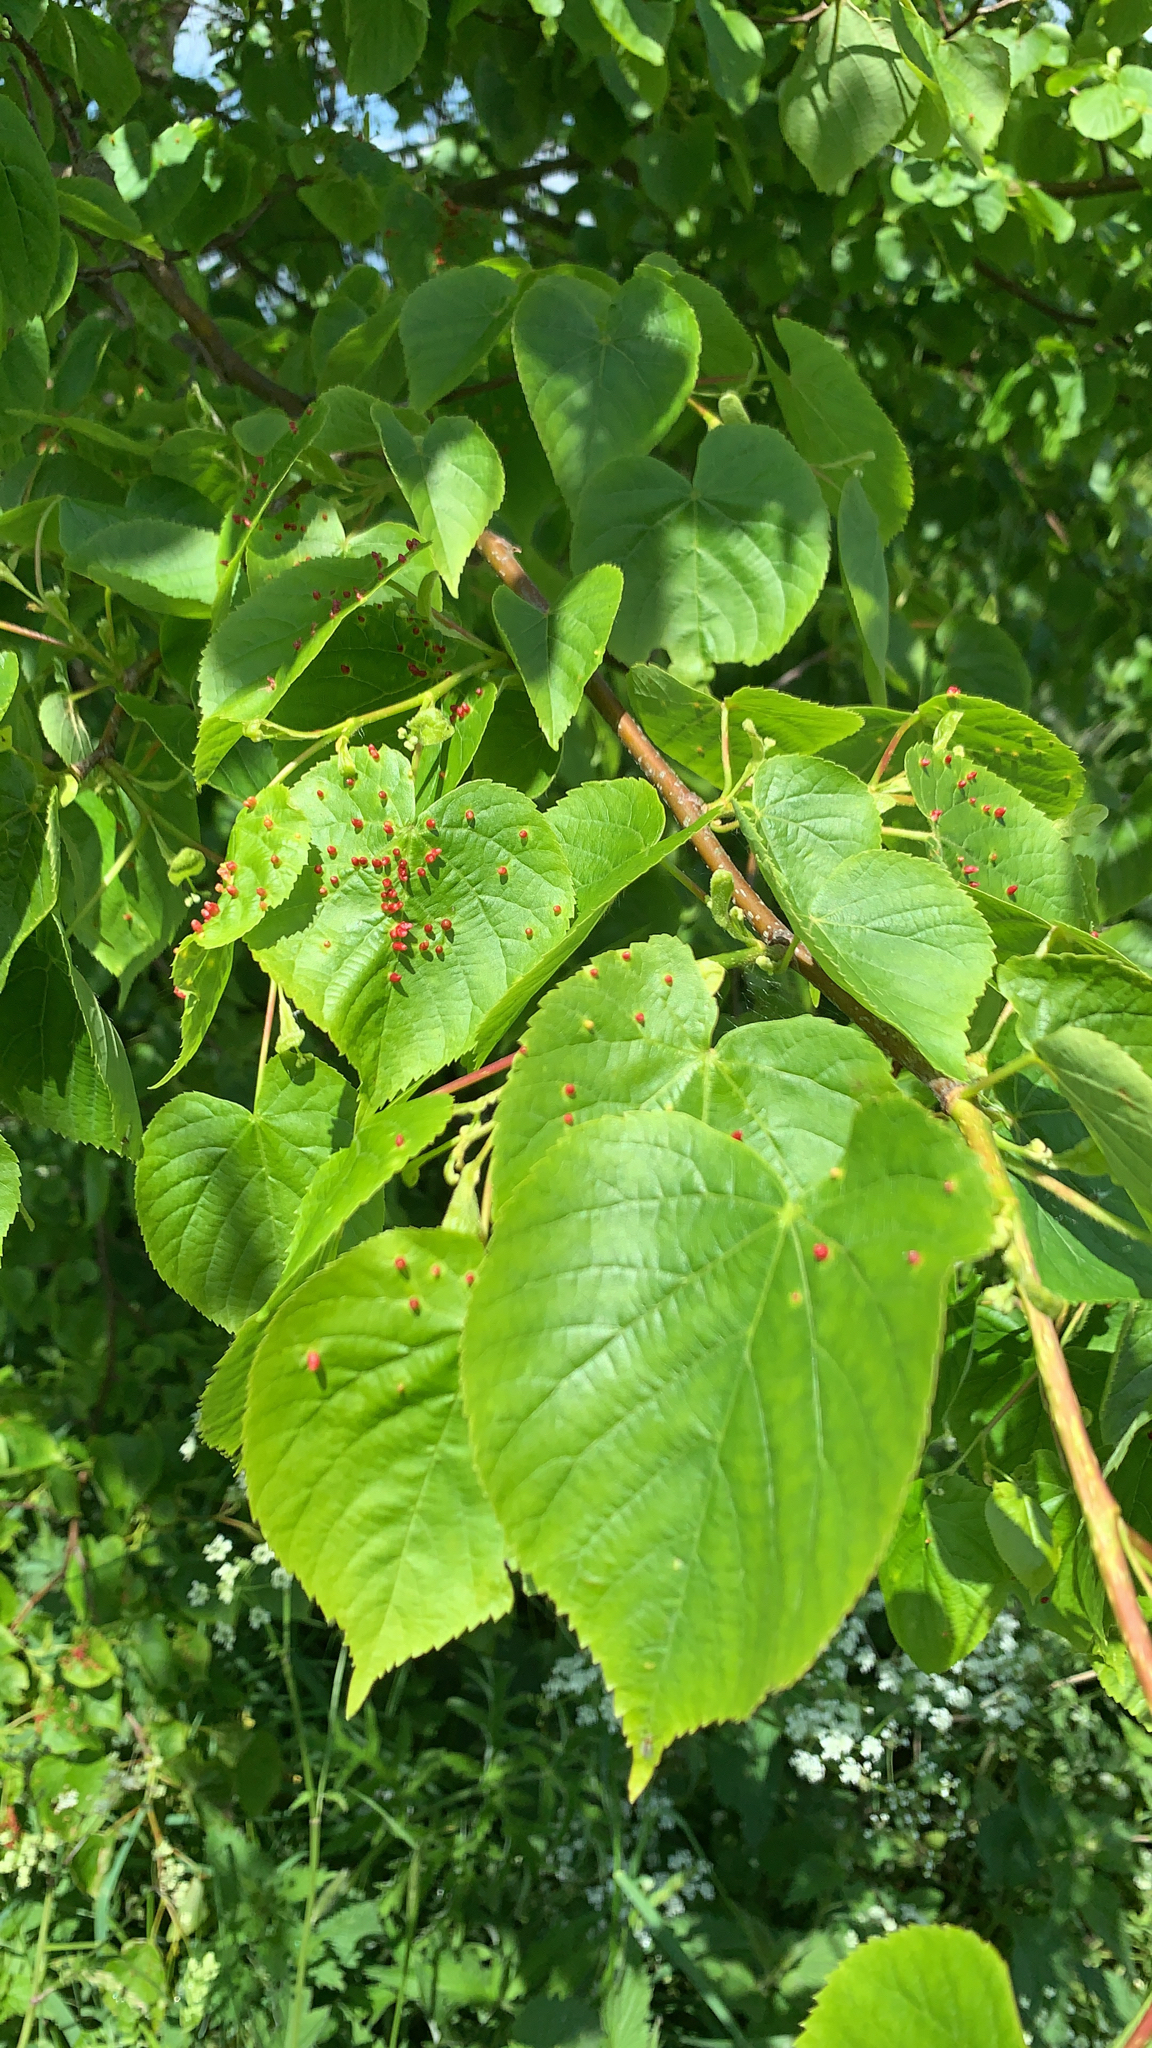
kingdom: Animalia
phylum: Arthropoda
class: Arachnida
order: Trombidiformes
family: Eriophyidae
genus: Eriophyes
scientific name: Eriophyes tiliae
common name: Red nail gall mite
